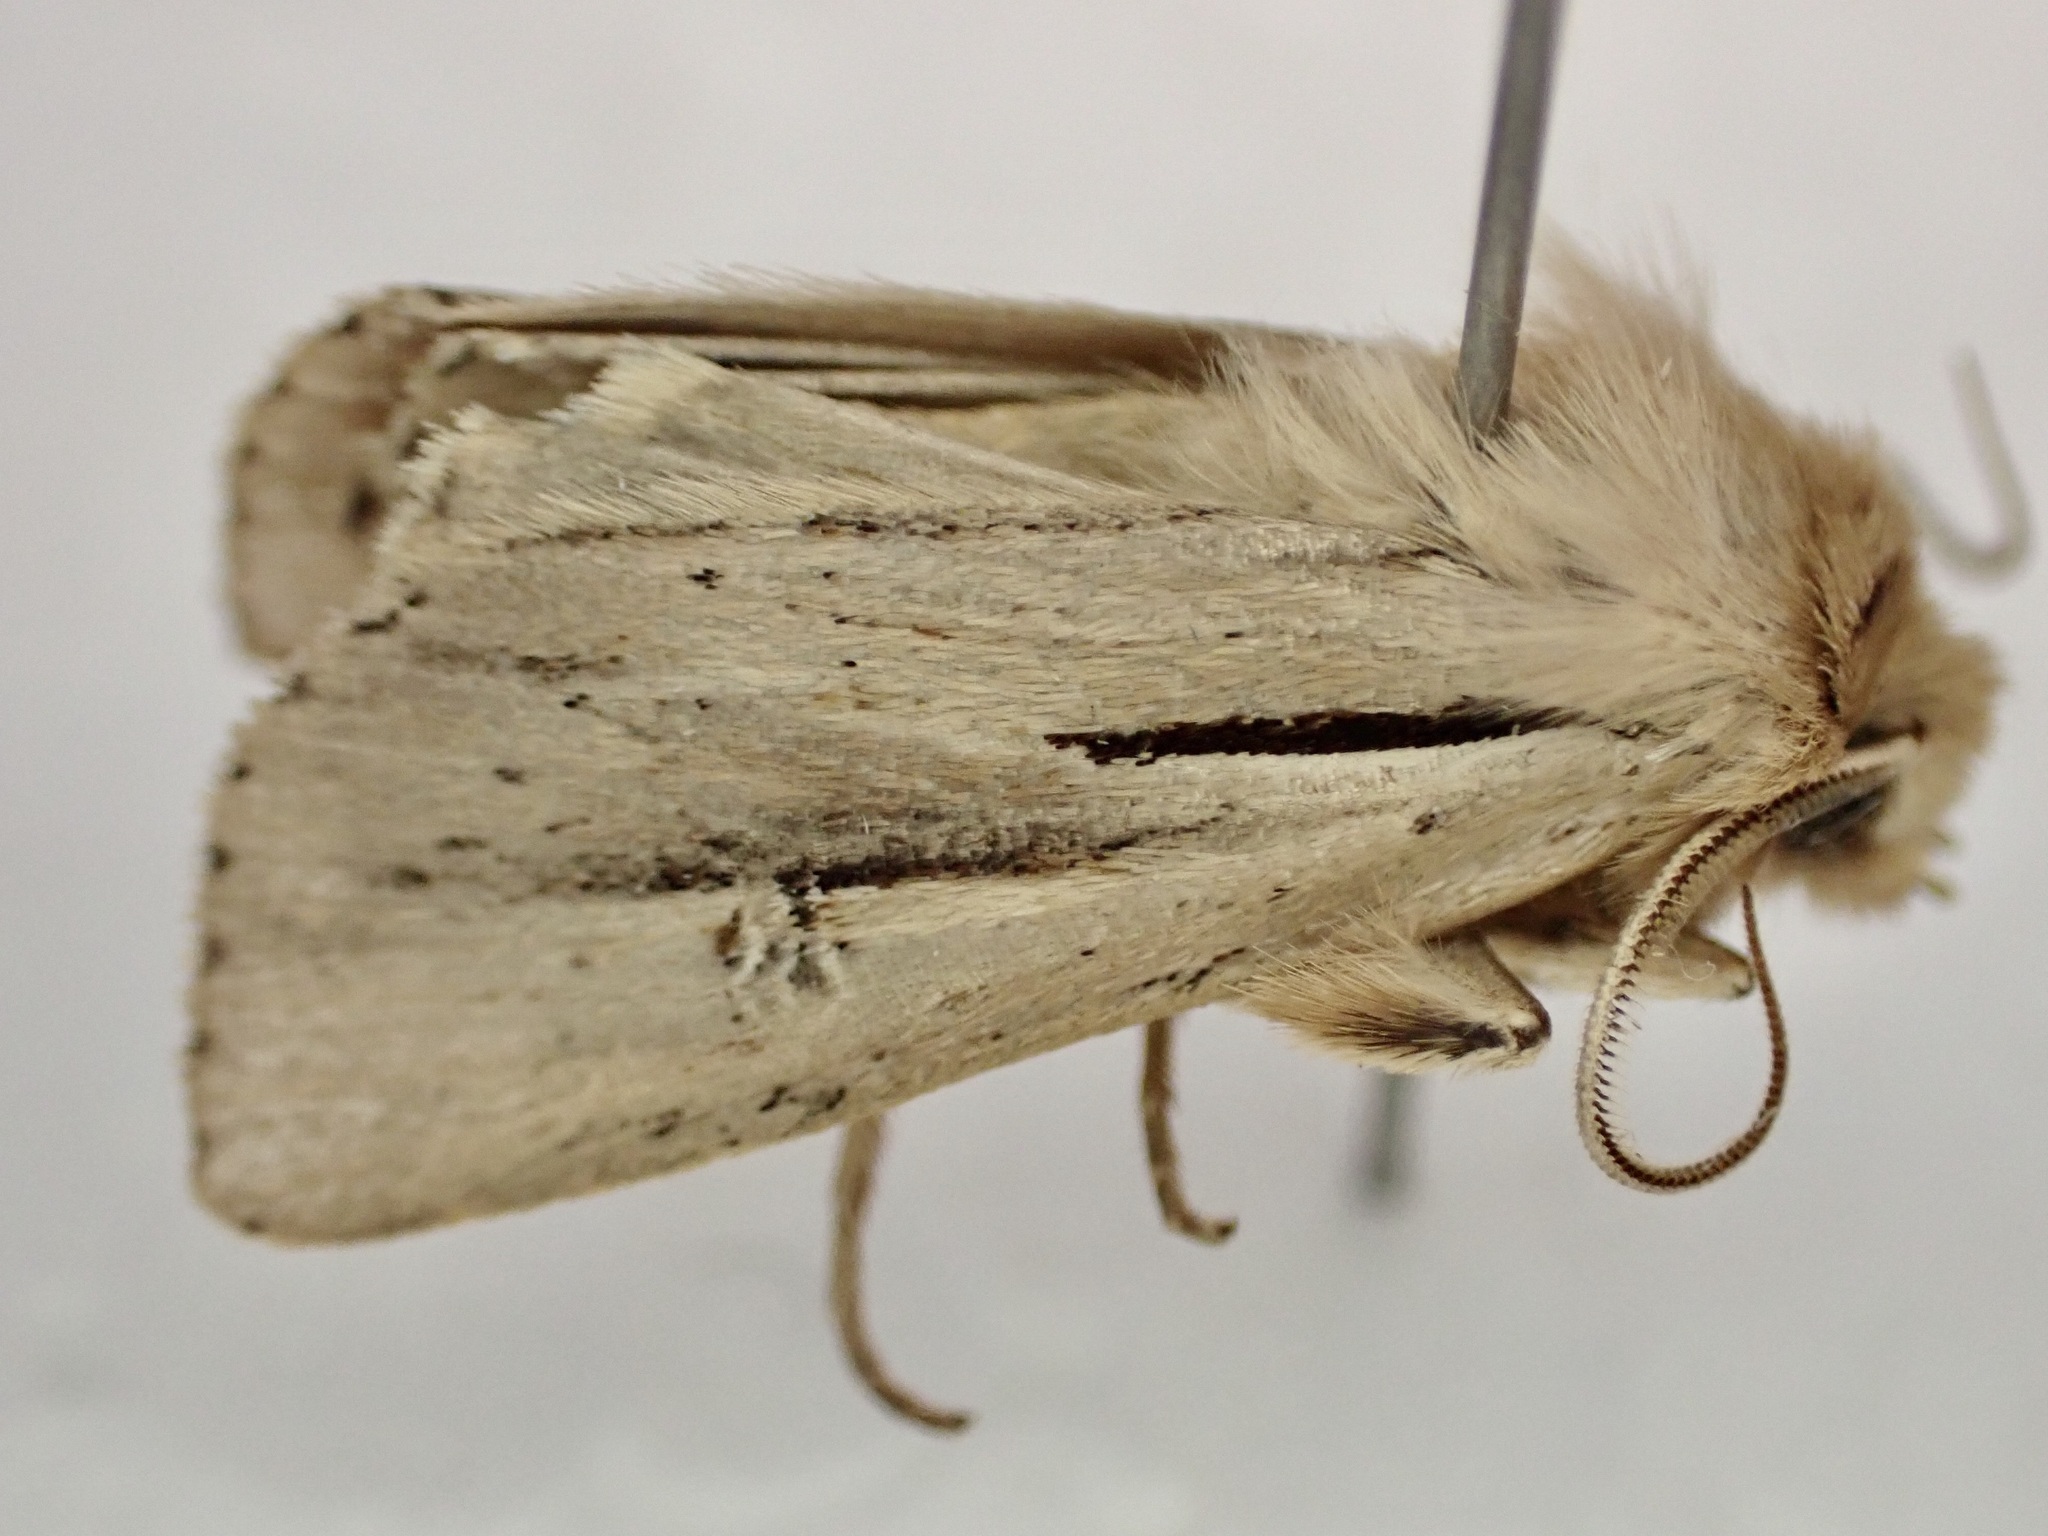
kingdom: Animalia
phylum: Arthropoda
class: Insecta
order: Lepidoptera
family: Noctuidae
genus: Ichneutica
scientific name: Ichneutica propria
